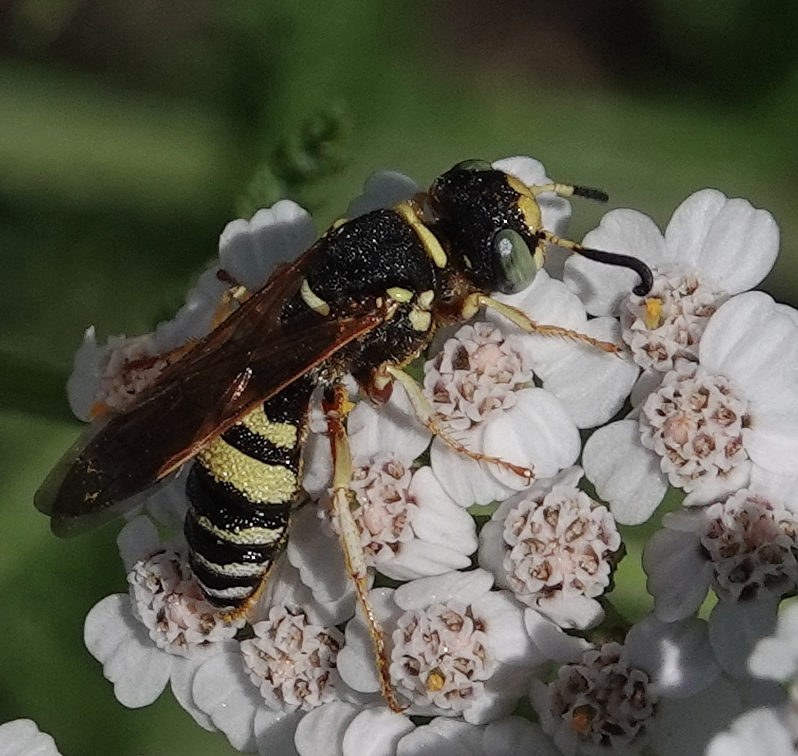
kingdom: Animalia
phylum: Arthropoda
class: Insecta
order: Hymenoptera
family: Crabronidae
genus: Philanthus
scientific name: Philanthus ventilabris
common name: Bee-killer wasp
